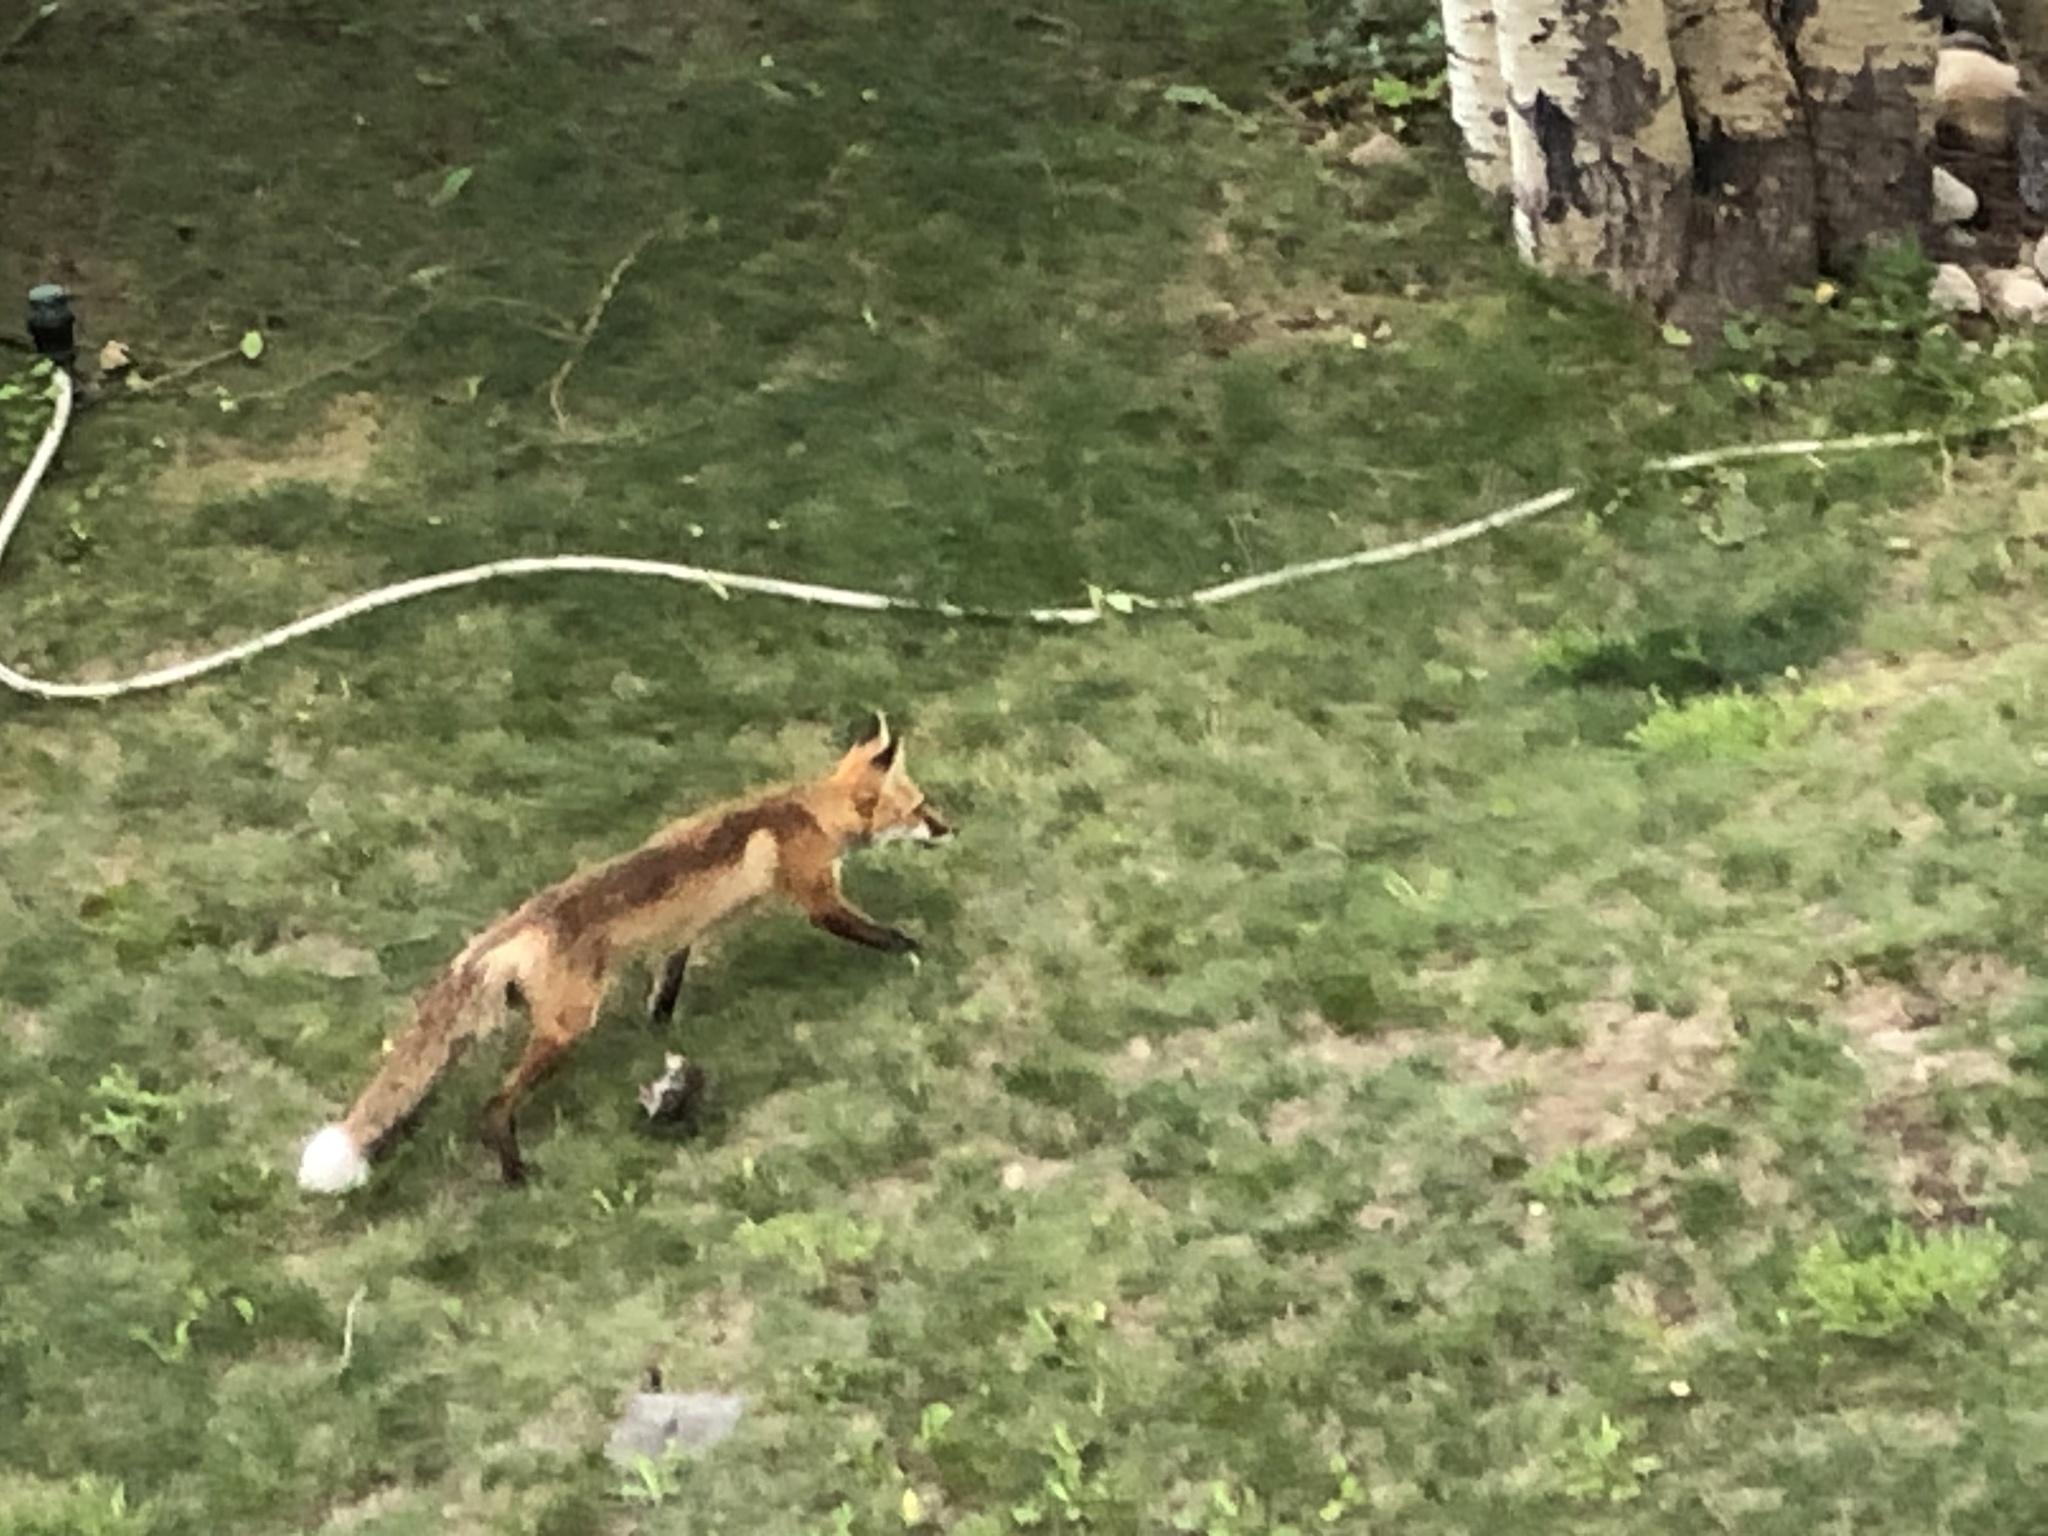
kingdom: Animalia
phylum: Chordata
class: Mammalia
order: Carnivora
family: Canidae
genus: Vulpes
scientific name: Vulpes vulpes
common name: Red fox
